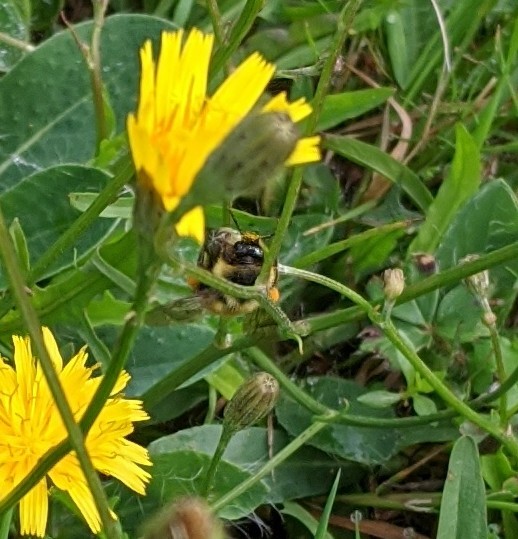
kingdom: Animalia
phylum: Arthropoda
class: Insecta
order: Hymenoptera
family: Apidae
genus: Bombus
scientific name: Bombus ternarius
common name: Tri-colored bumble bee
